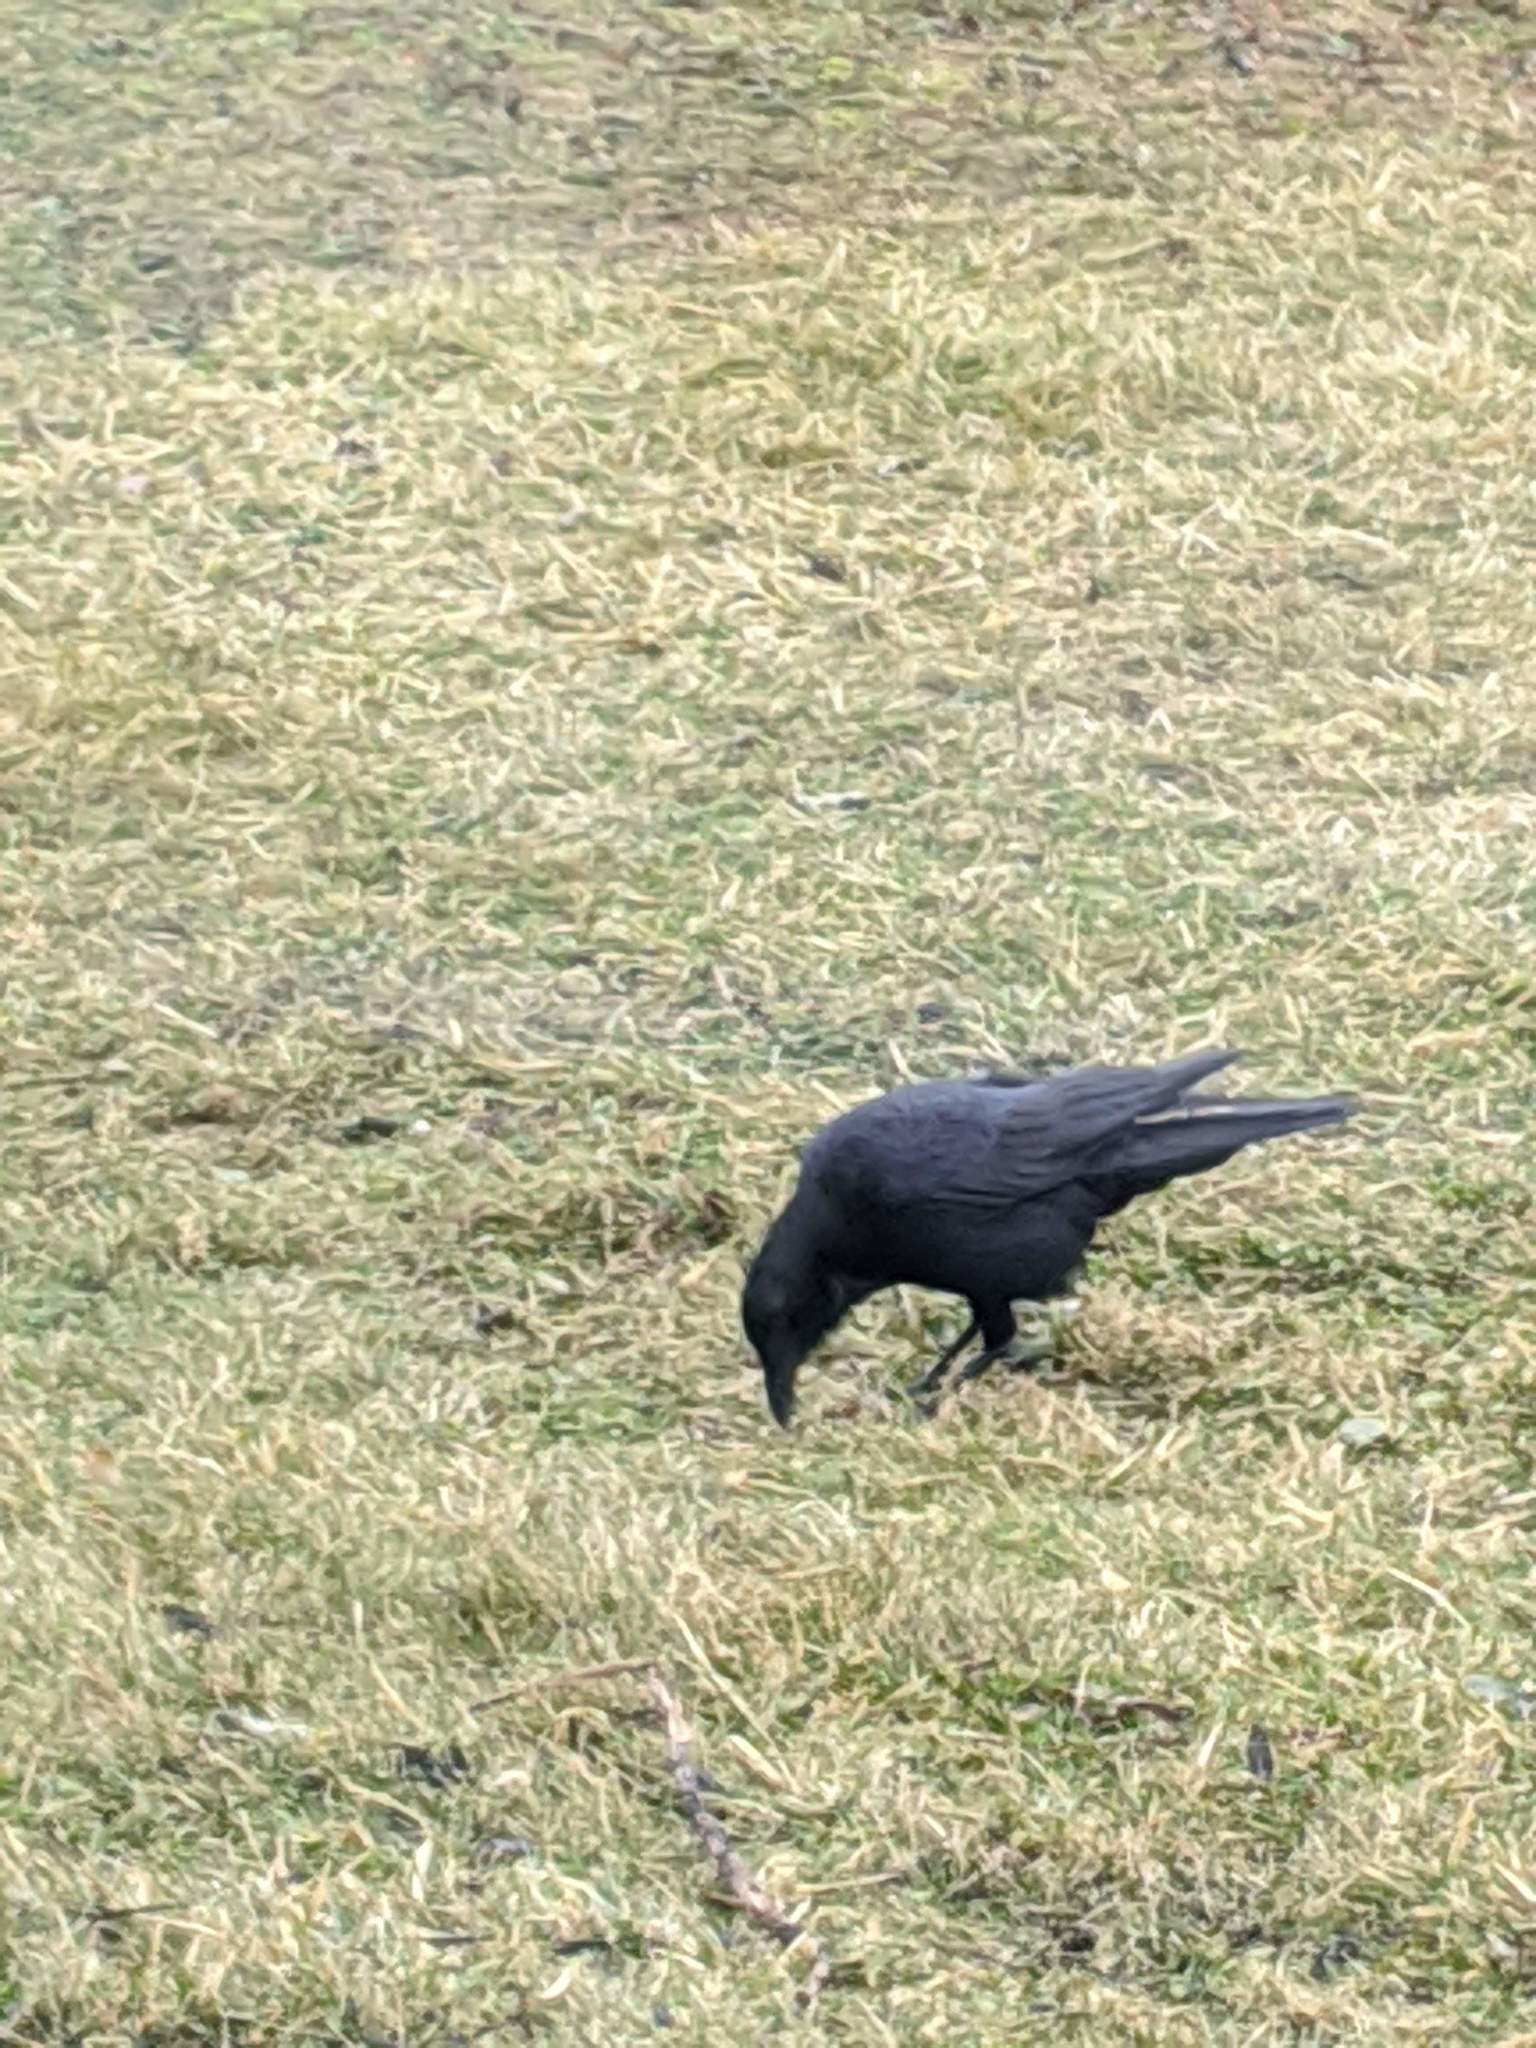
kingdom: Animalia
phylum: Chordata
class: Aves
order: Passeriformes
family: Corvidae
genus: Corvus
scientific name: Corvus brachyrhynchos
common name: American crow
